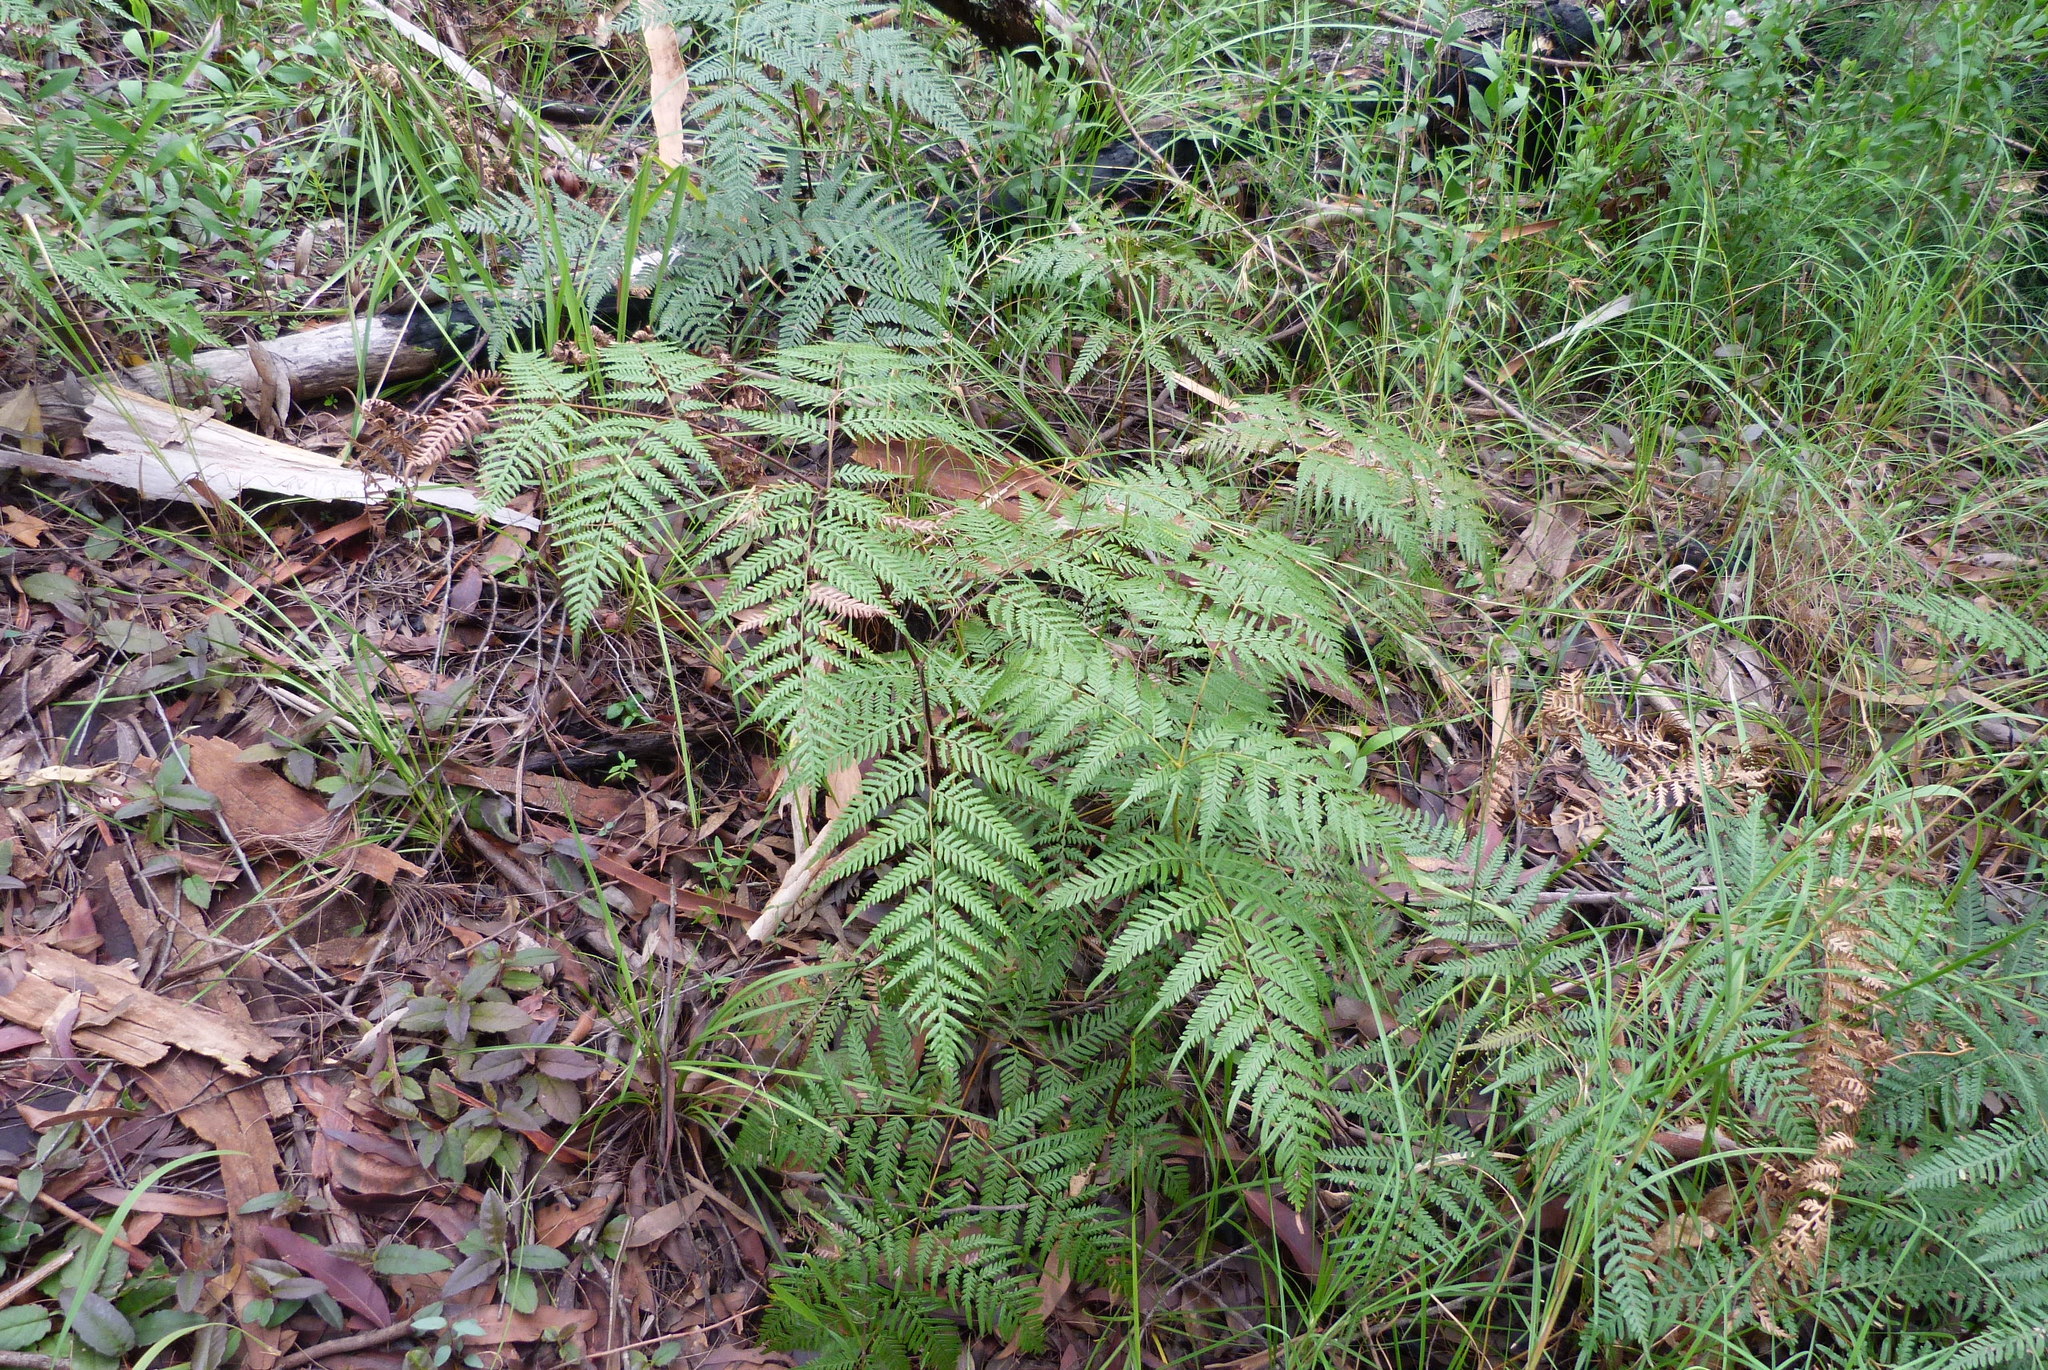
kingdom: Plantae
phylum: Tracheophyta
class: Polypodiopsida
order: Polypodiales
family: Dennstaedtiaceae
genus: Pteridium
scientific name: Pteridium esculentum
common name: Bracken fern
